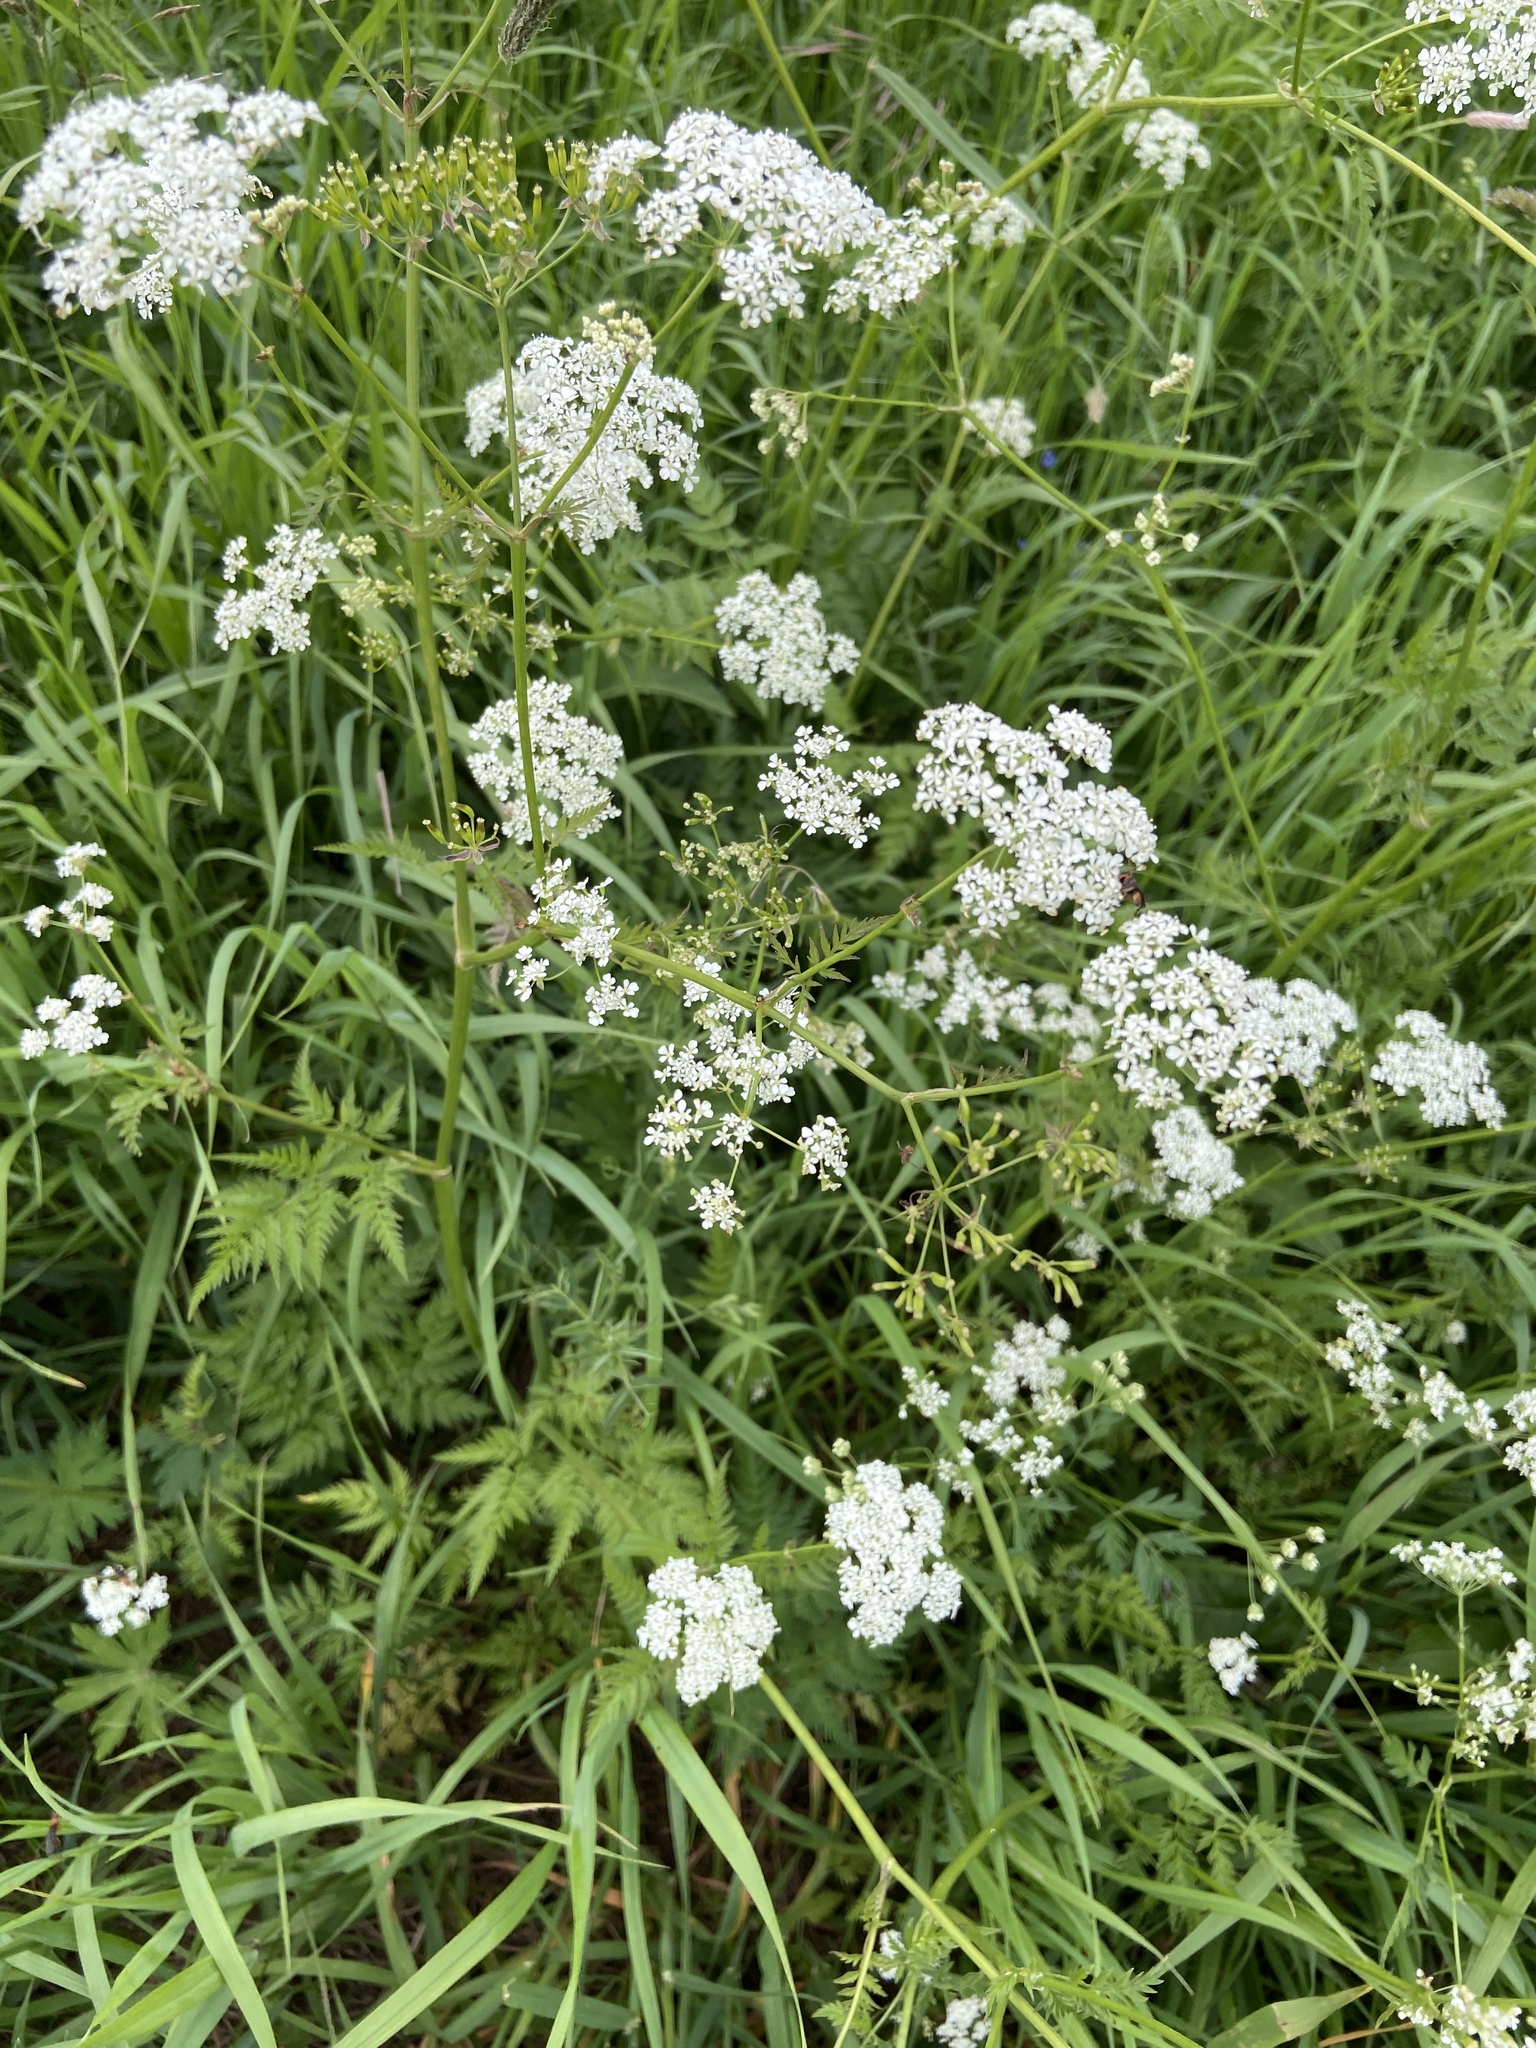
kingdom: Plantae
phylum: Tracheophyta
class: Magnoliopsida
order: Apiales
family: Apiaceae
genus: Anthriscus
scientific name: Anthriscus sylvestris
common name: Cow parsley
